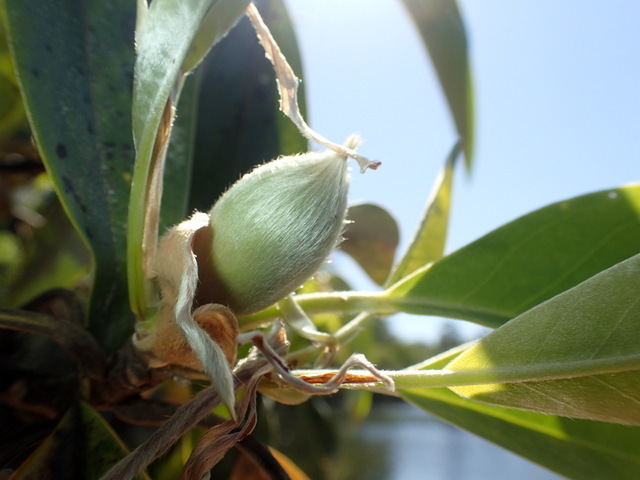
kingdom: Plantae
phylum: Tracheophyta
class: Magnoliopsida
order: Magnoliales
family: Magnoliaceae
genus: Magnolia
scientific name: Magnolia virginiana
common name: Swamp bay
